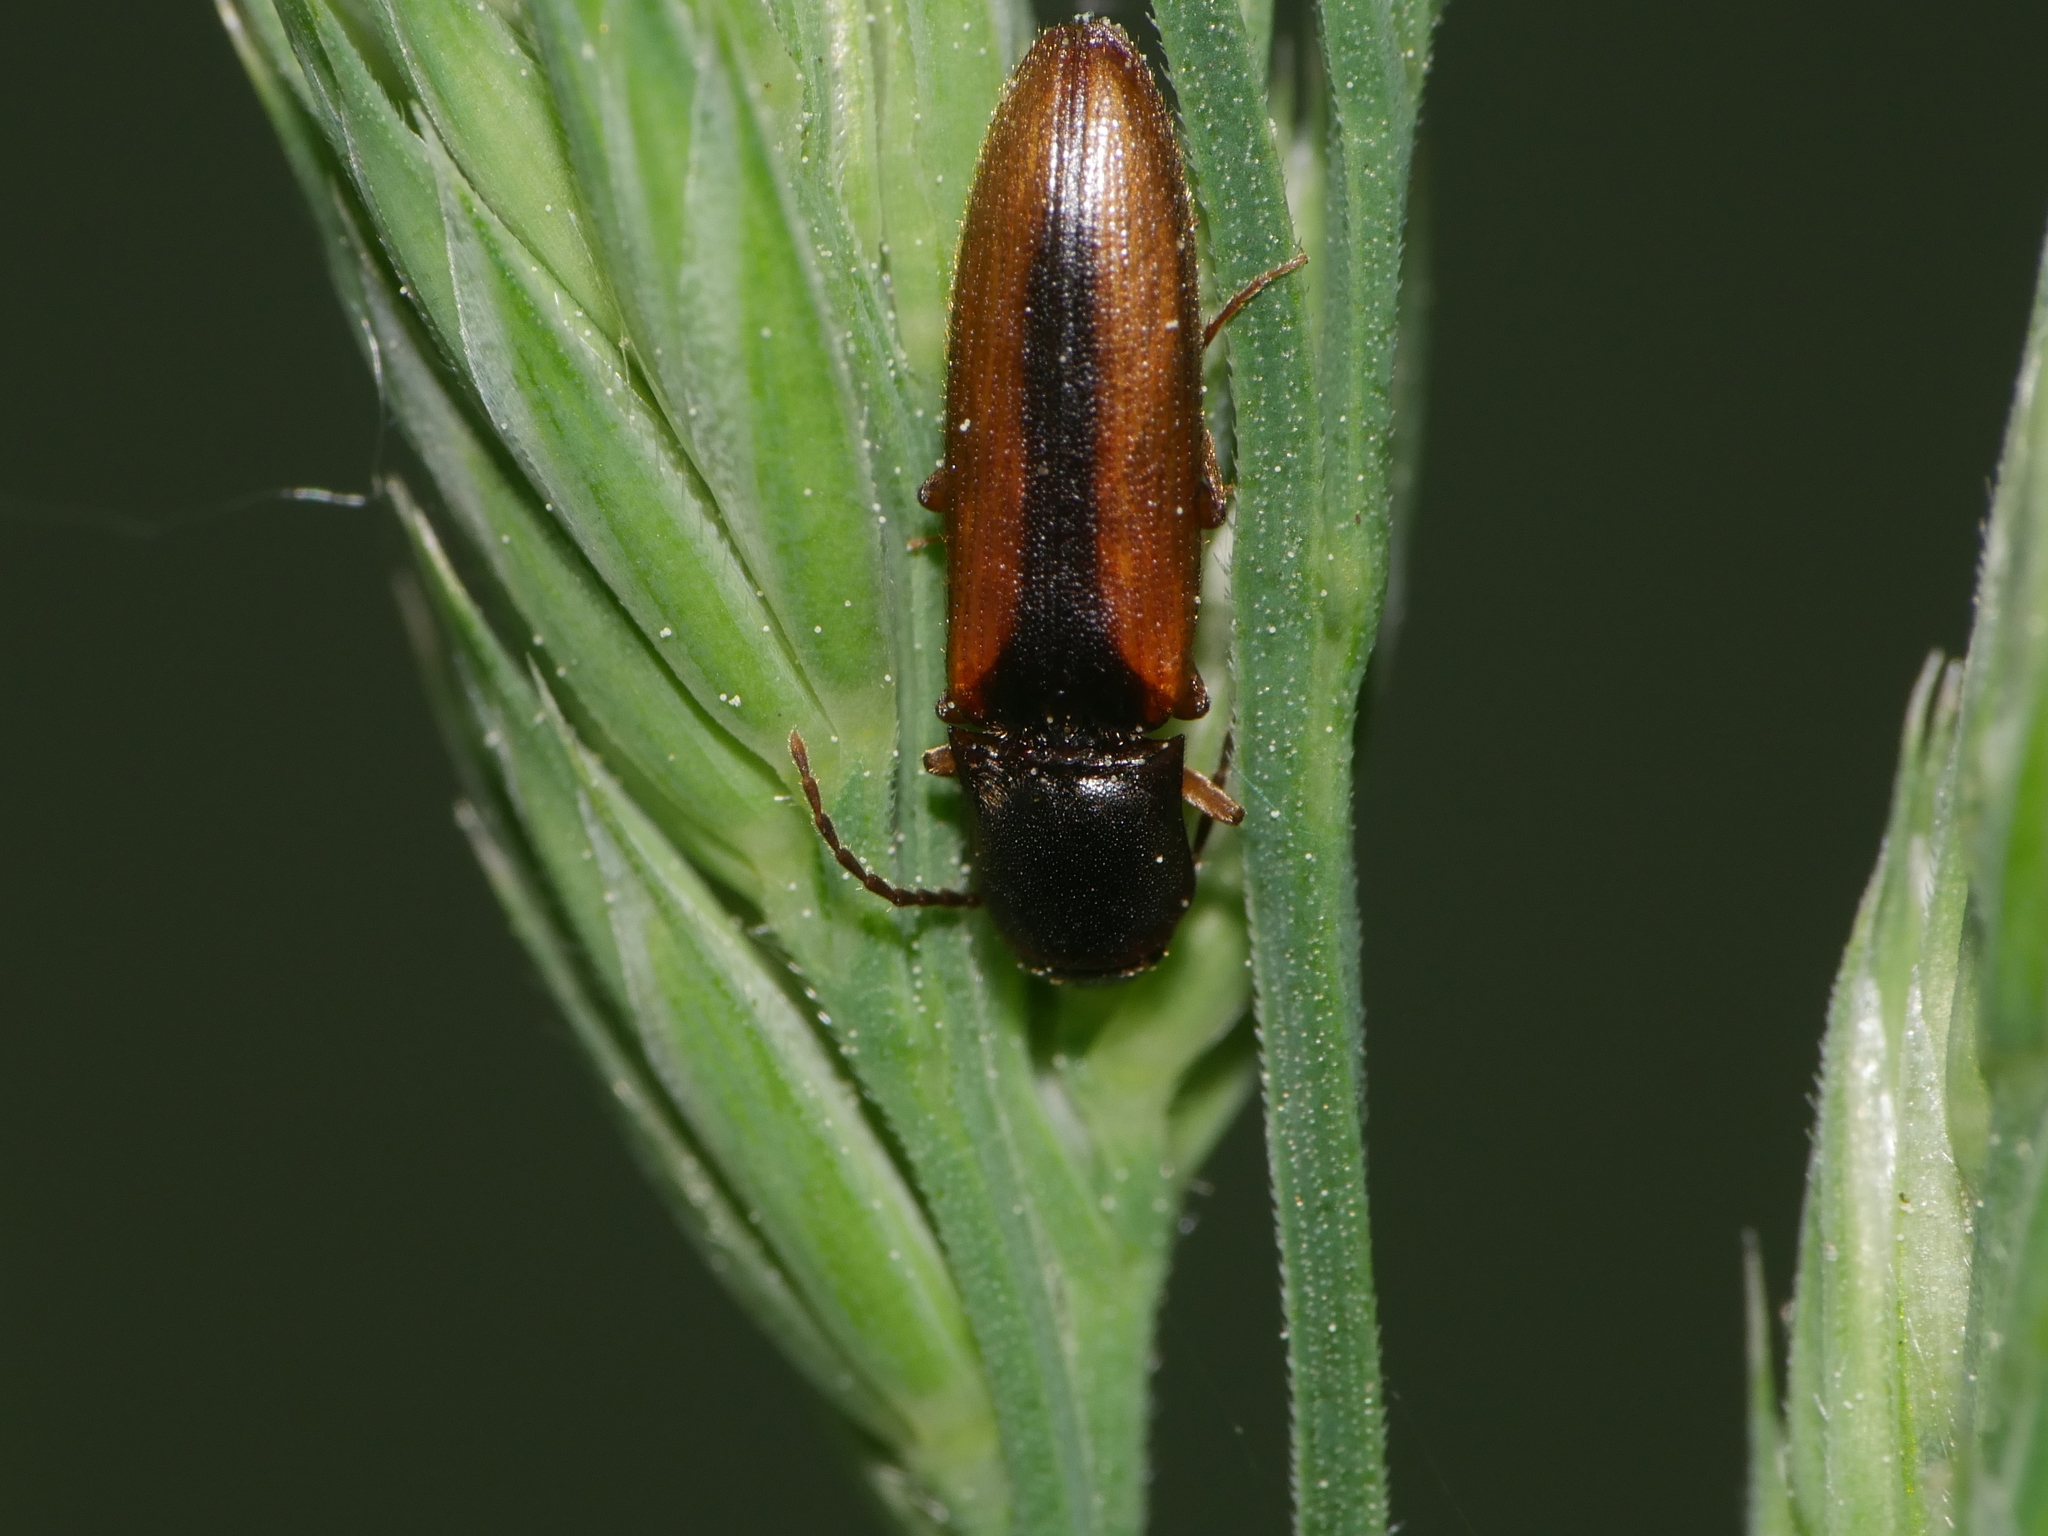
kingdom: Animalia
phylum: Arthropoda
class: Insecta
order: Coleoptera
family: Elateridae
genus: Dalopius
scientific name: Dalopius marginatus
